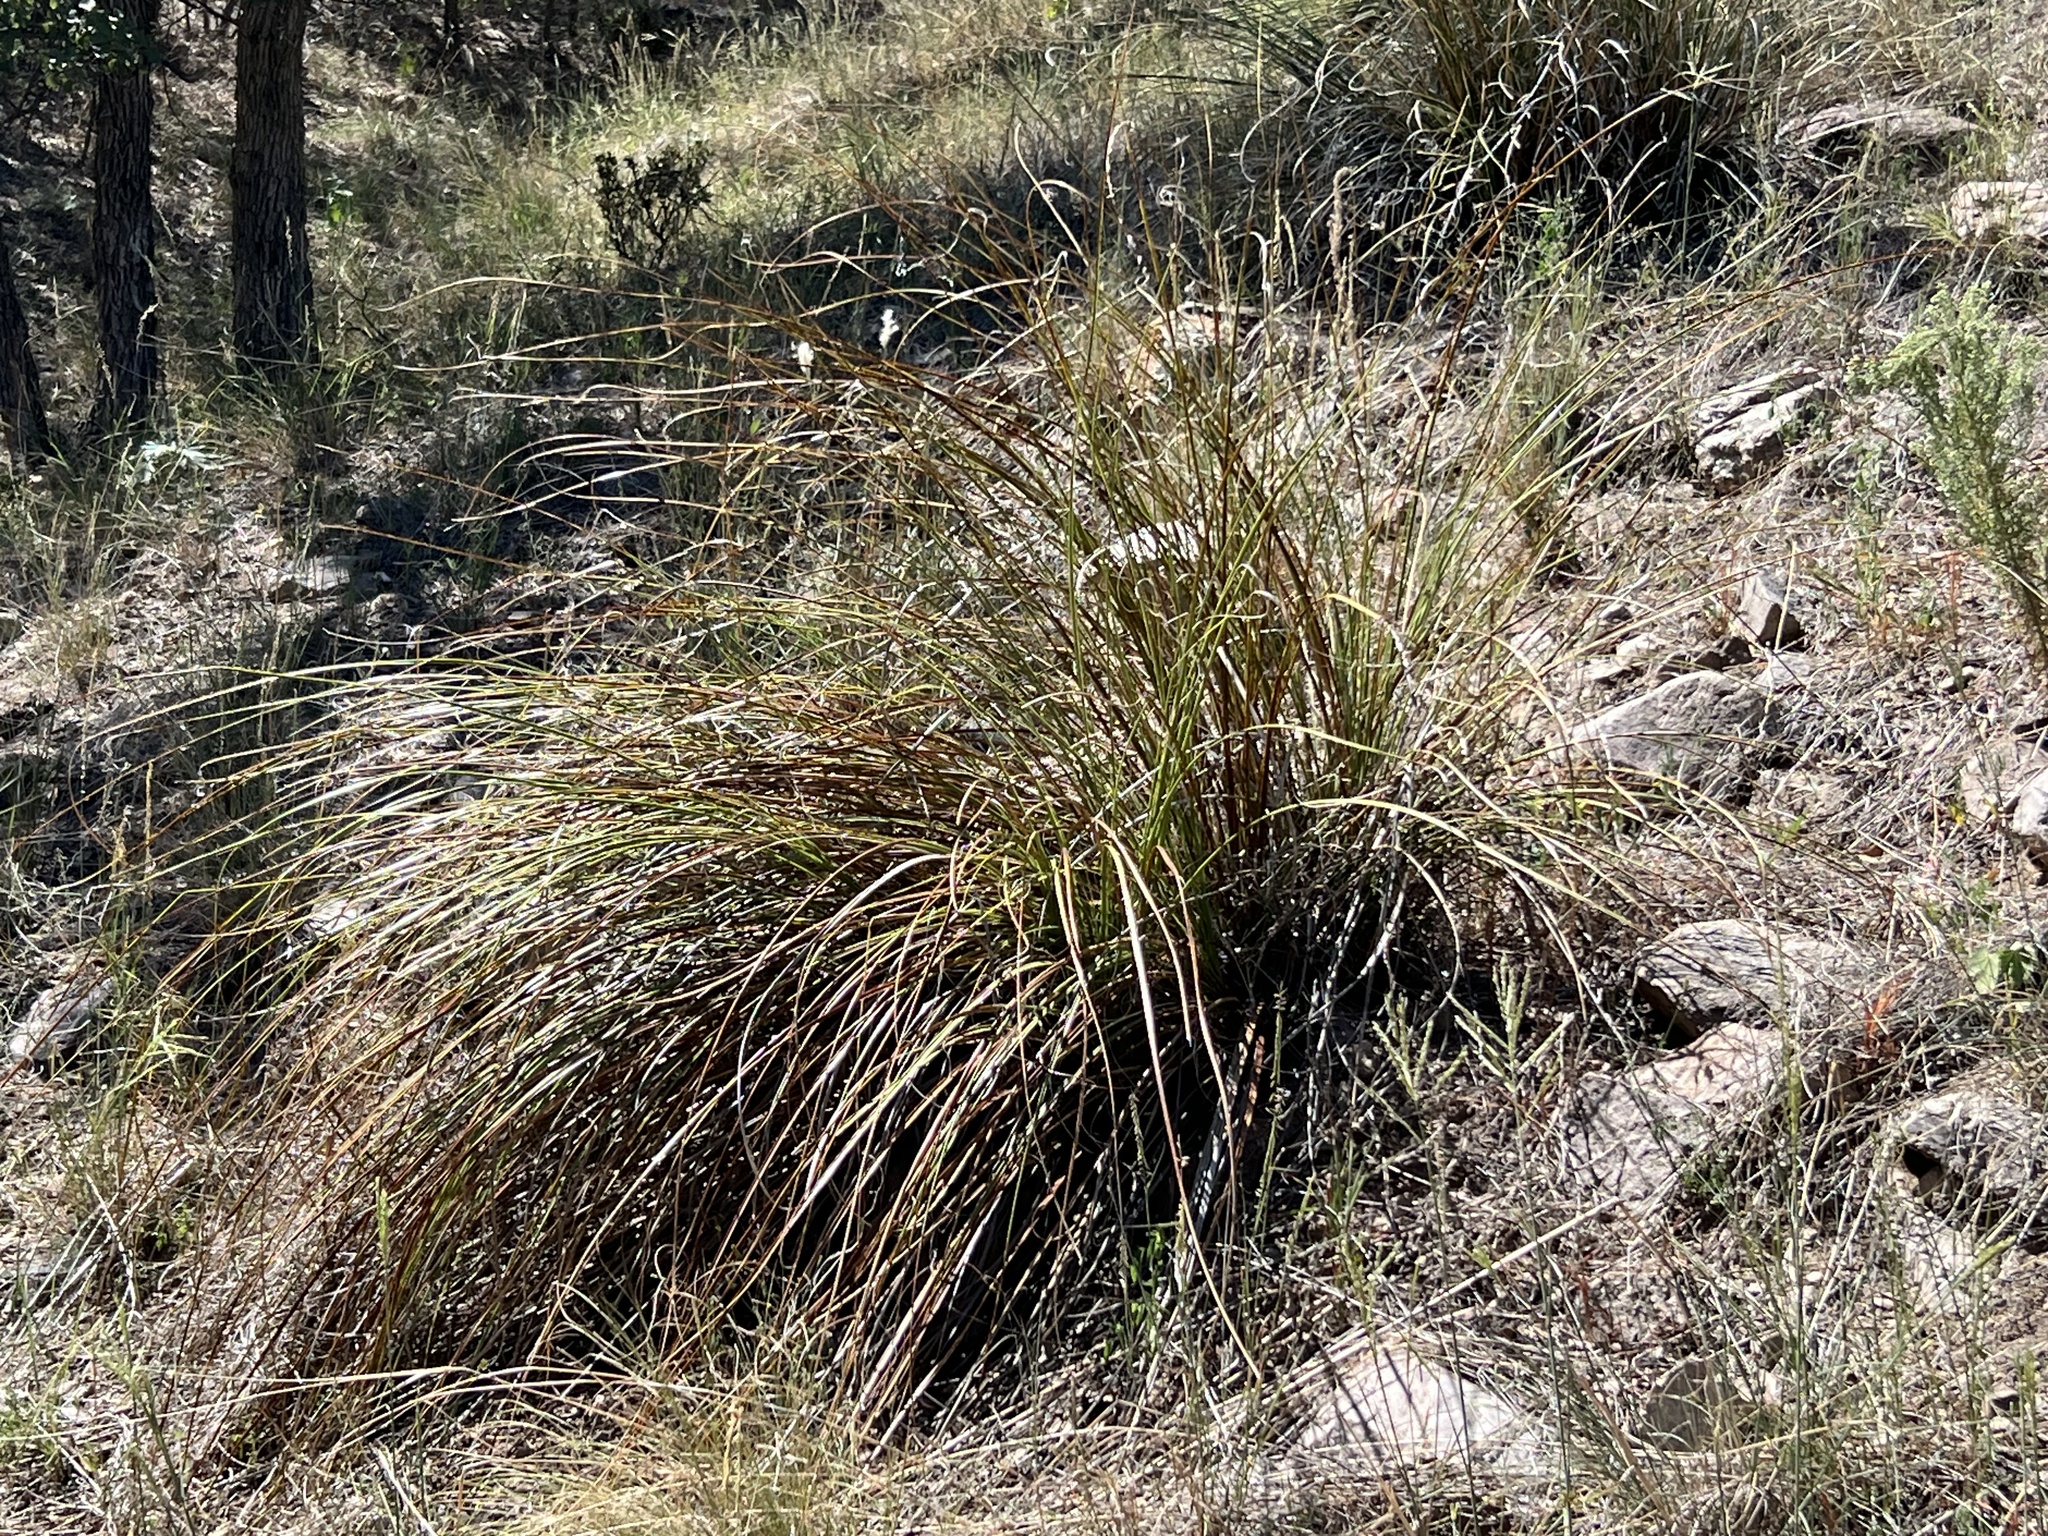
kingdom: Plantae
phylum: Tracheophyta
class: Liliopsida
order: Asparagales
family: Asparagaceae
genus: Nolina
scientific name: Nolina microcarpa
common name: Bear-grass
